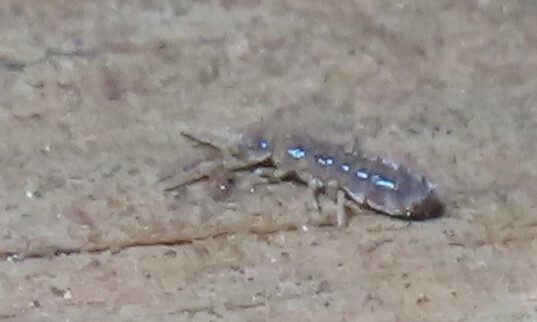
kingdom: Animalia
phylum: Arthropoda
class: Collembola
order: Entomobryomorpha
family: Isotomidae
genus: Isotoma
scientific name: Isotoma delta
